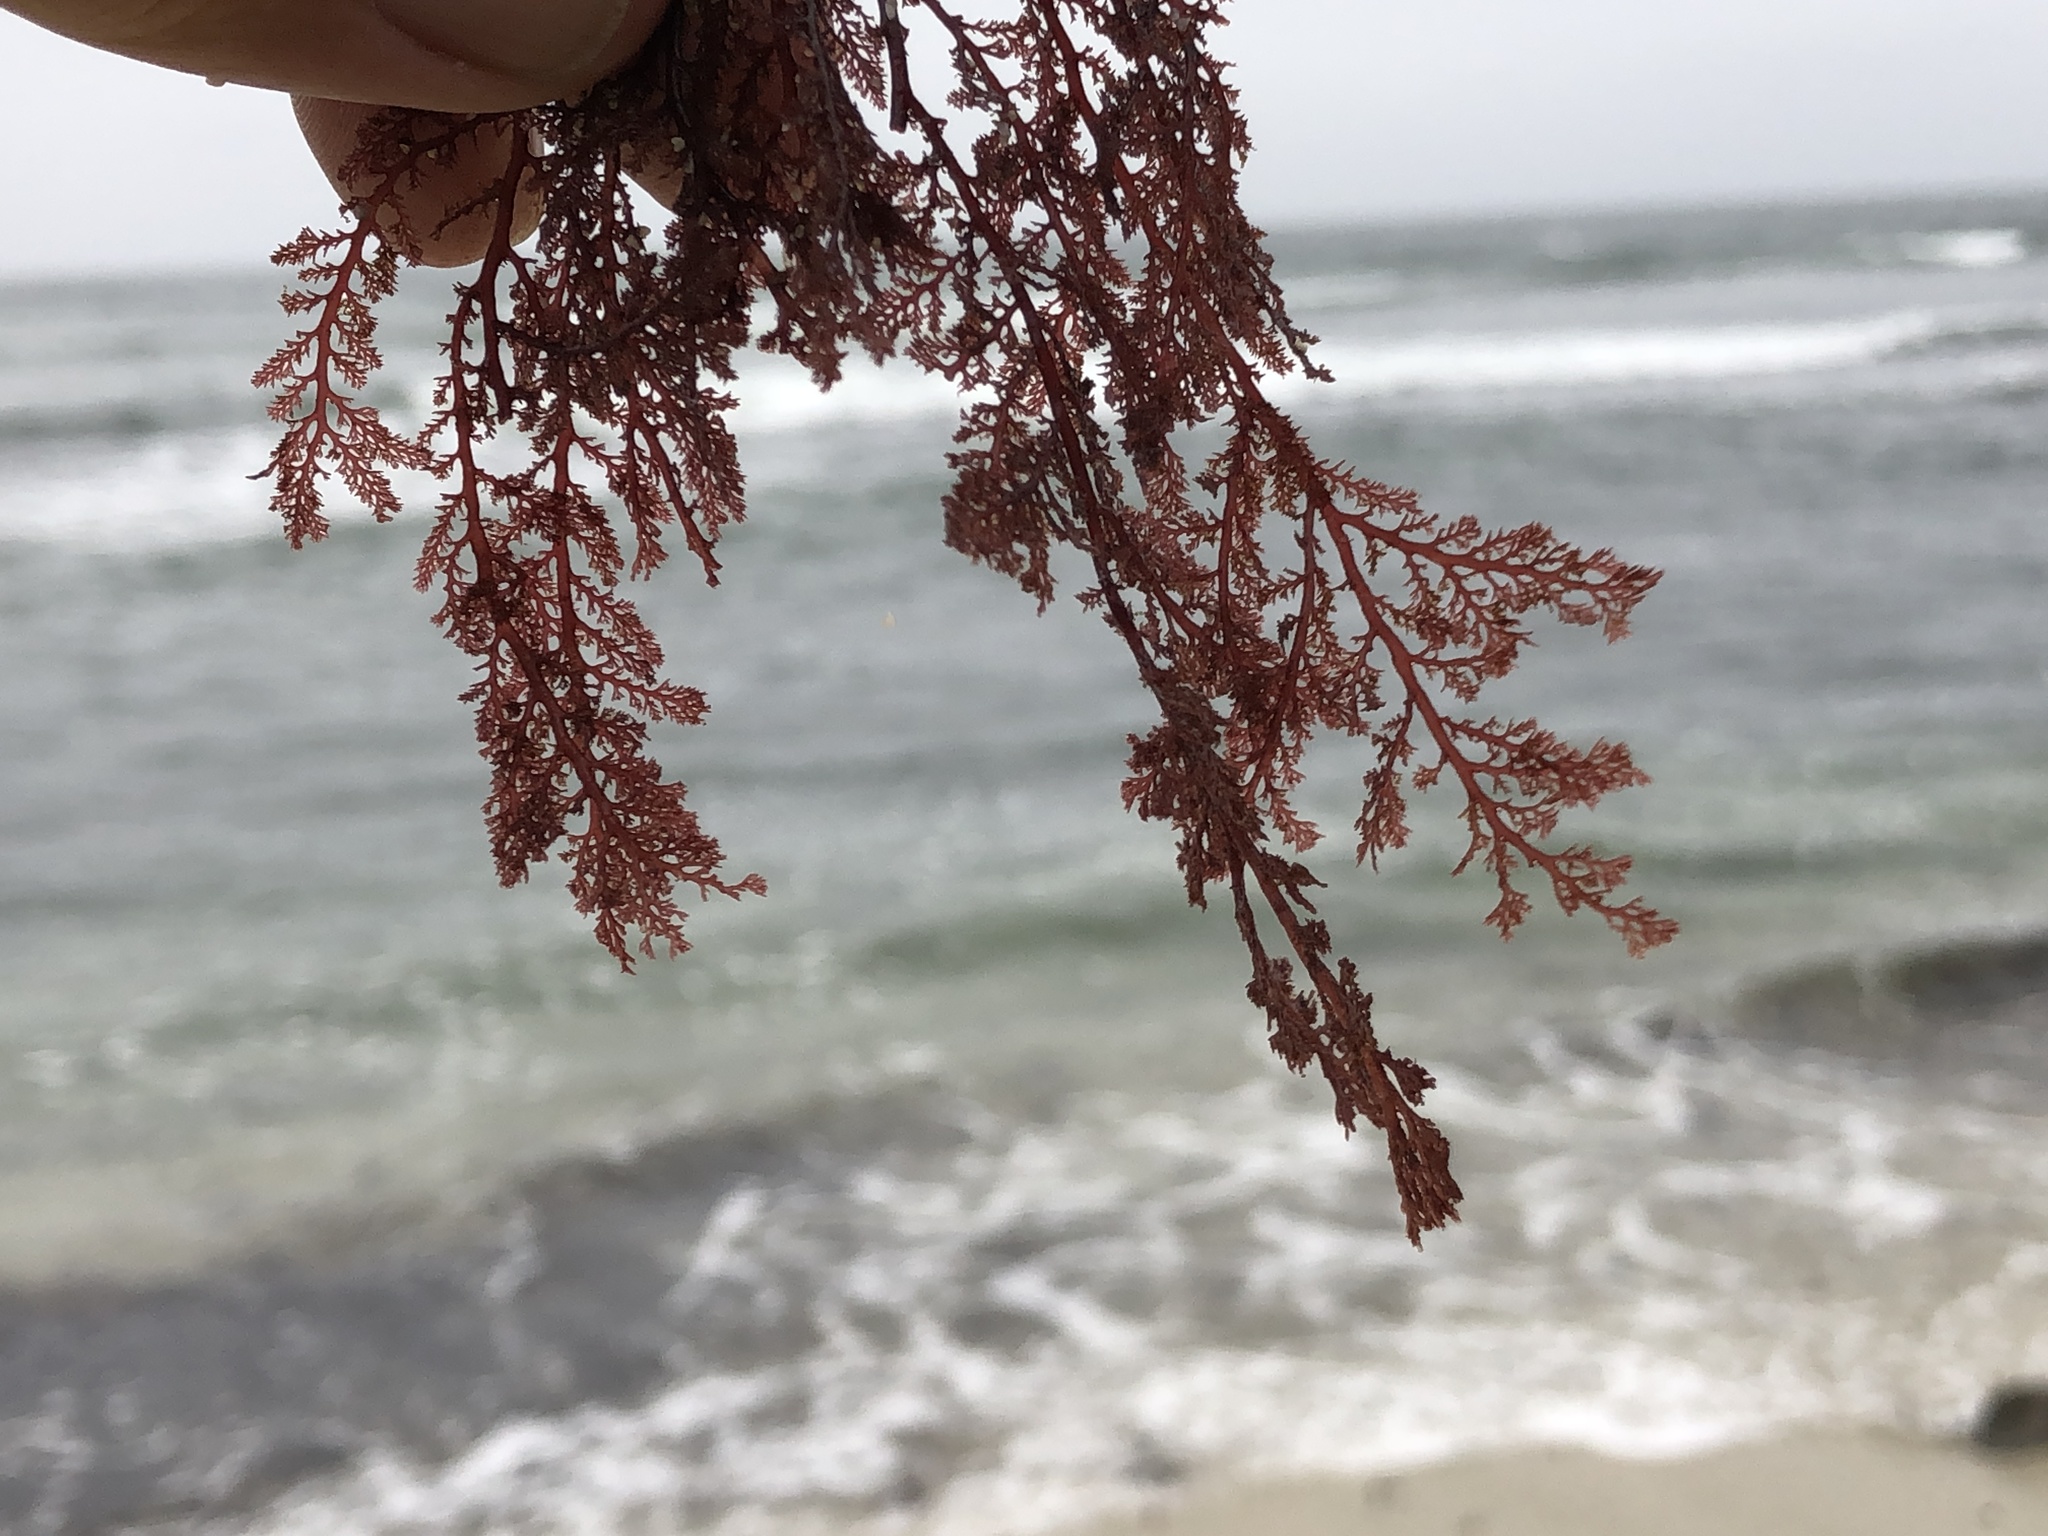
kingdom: Plantae
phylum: Rhodophyta
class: Florideophyceae
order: Ceramiales
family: Ceramiaceae
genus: Microcladia
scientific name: Microcladia coulteri
